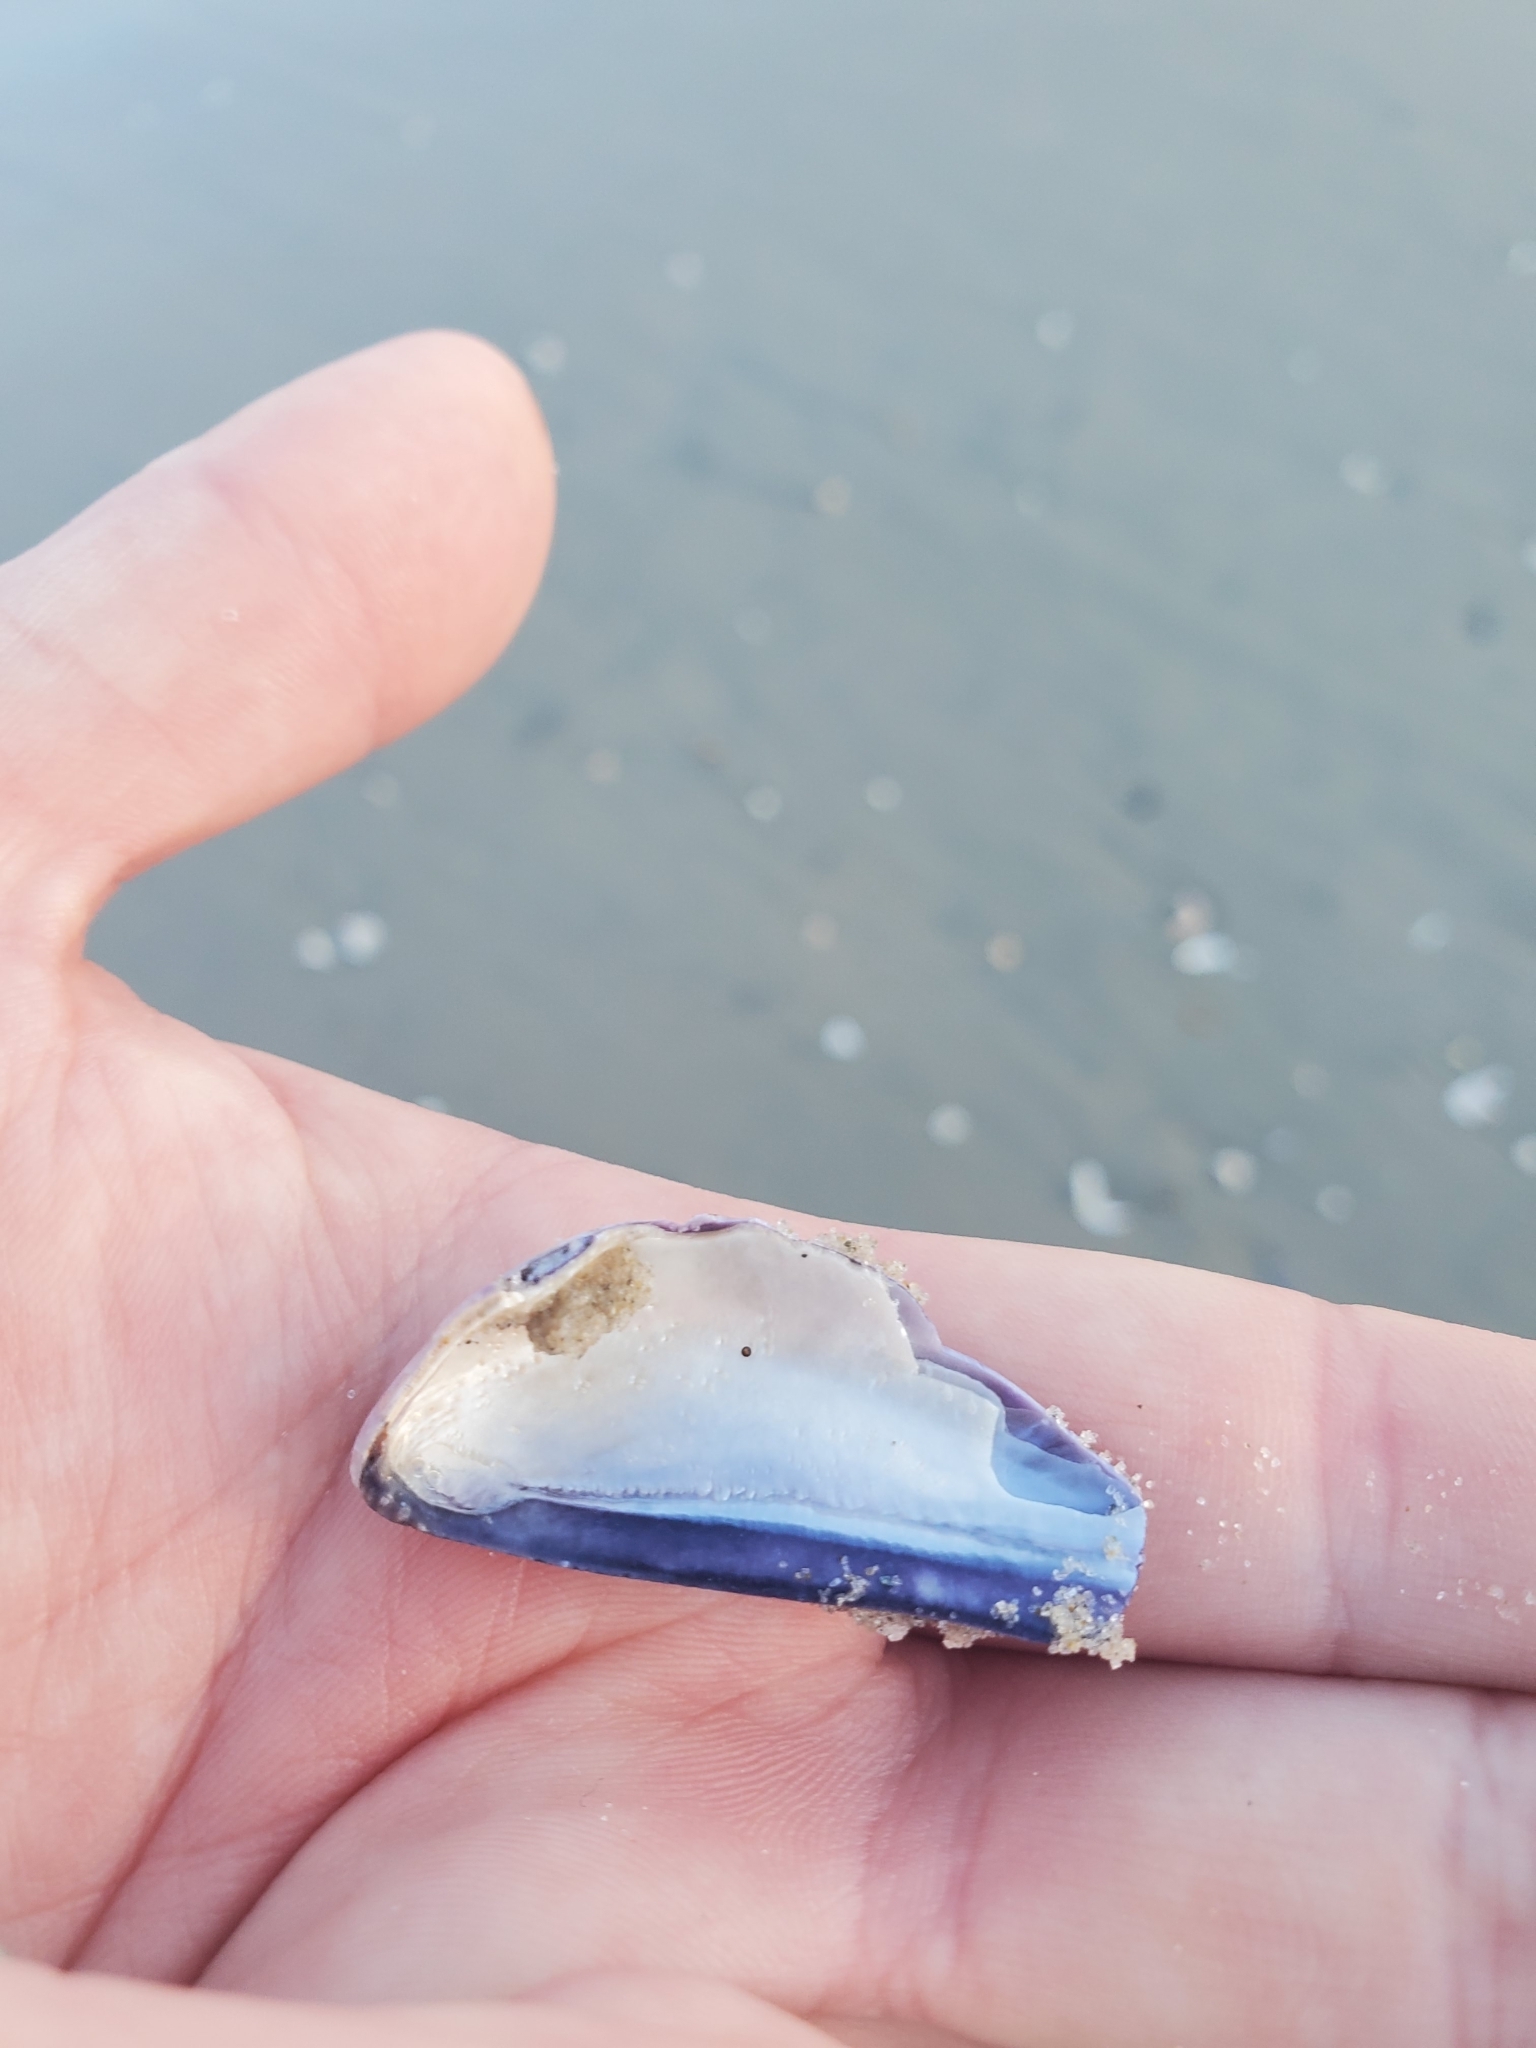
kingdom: Animalia
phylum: Mollusca
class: Bivalvia
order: Mytilida
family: Mytilidae
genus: Mytilus
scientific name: Mytilus edulis
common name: Blue mussel
